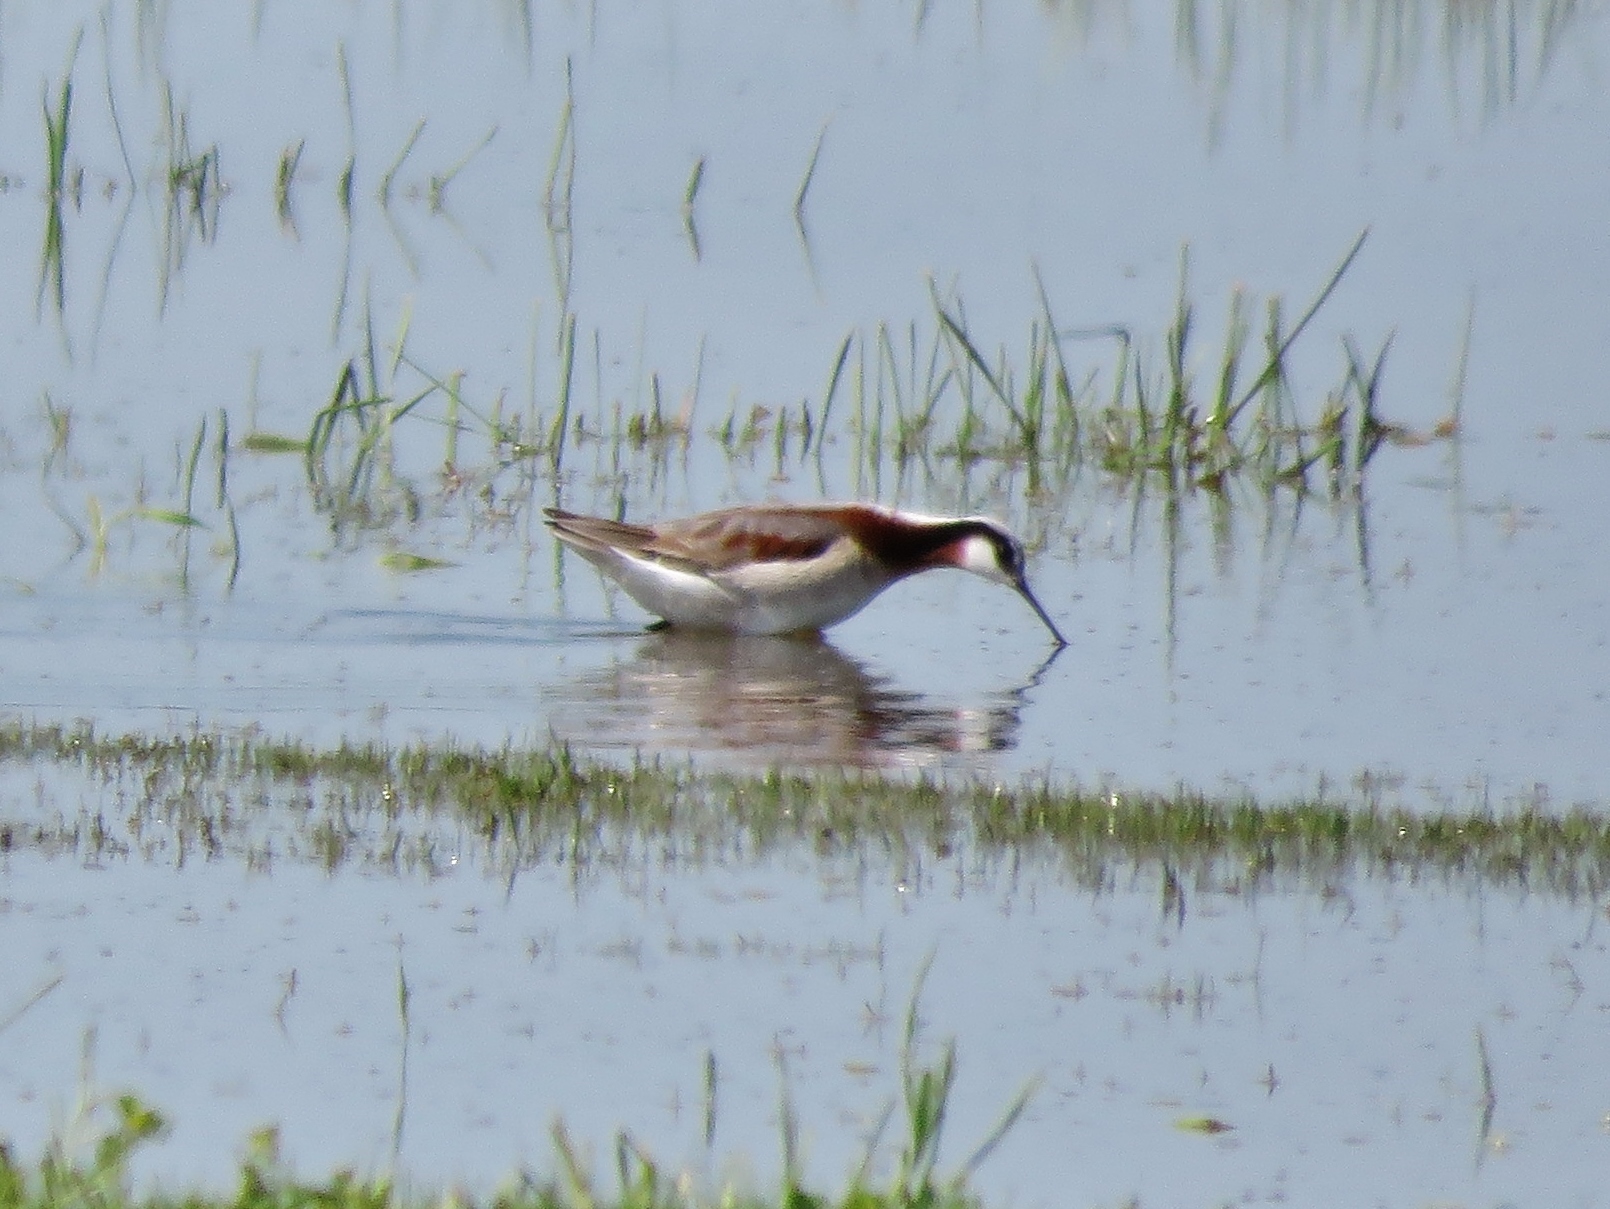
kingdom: Animalia
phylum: Chordata
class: Aves
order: Charadriiformes
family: Scolopacidae
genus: Phalaropus
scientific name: Phalaropus tricolor
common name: Wilson's phalarope
